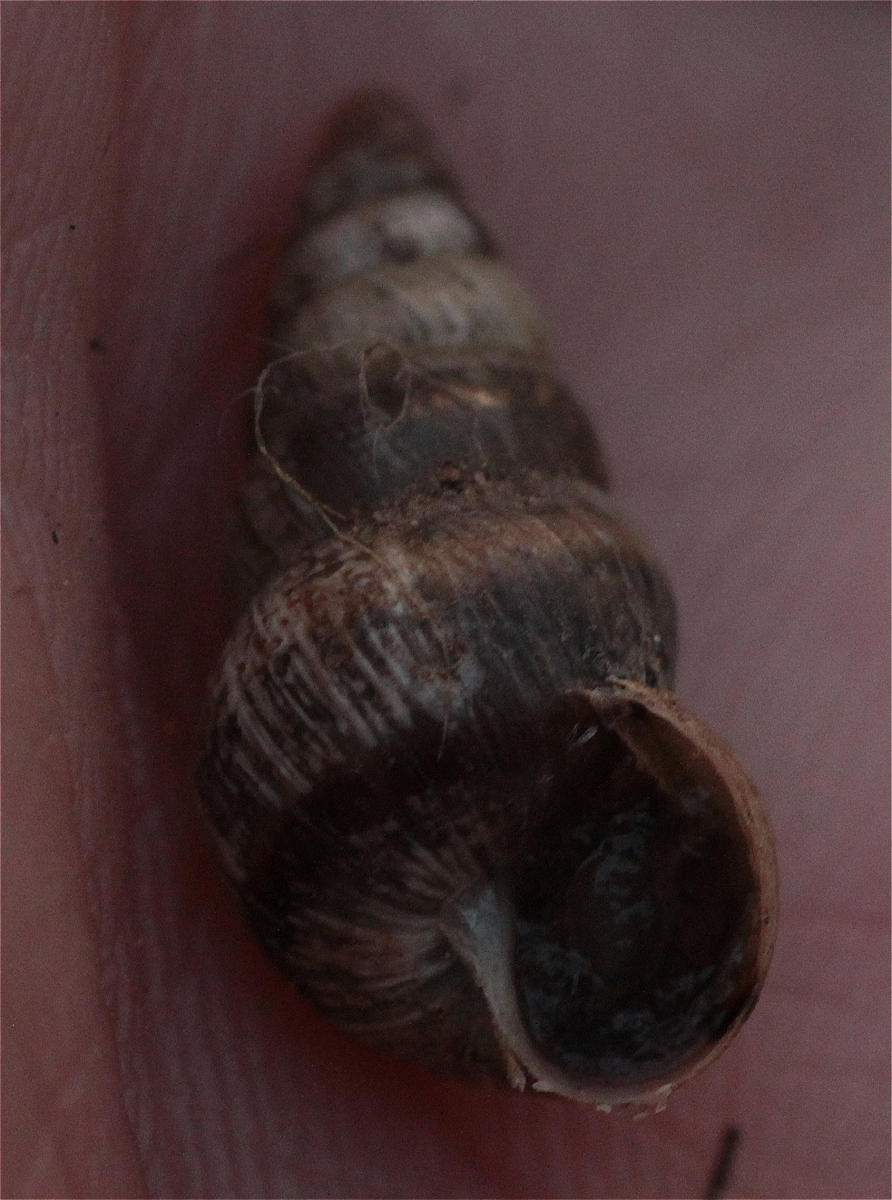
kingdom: Animalia
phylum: Mollusca
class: Gastropoda
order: Stylommatophora
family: Geomitridae
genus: Cochlicella
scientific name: Cochlicella barbara
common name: Potbellied helicellid
